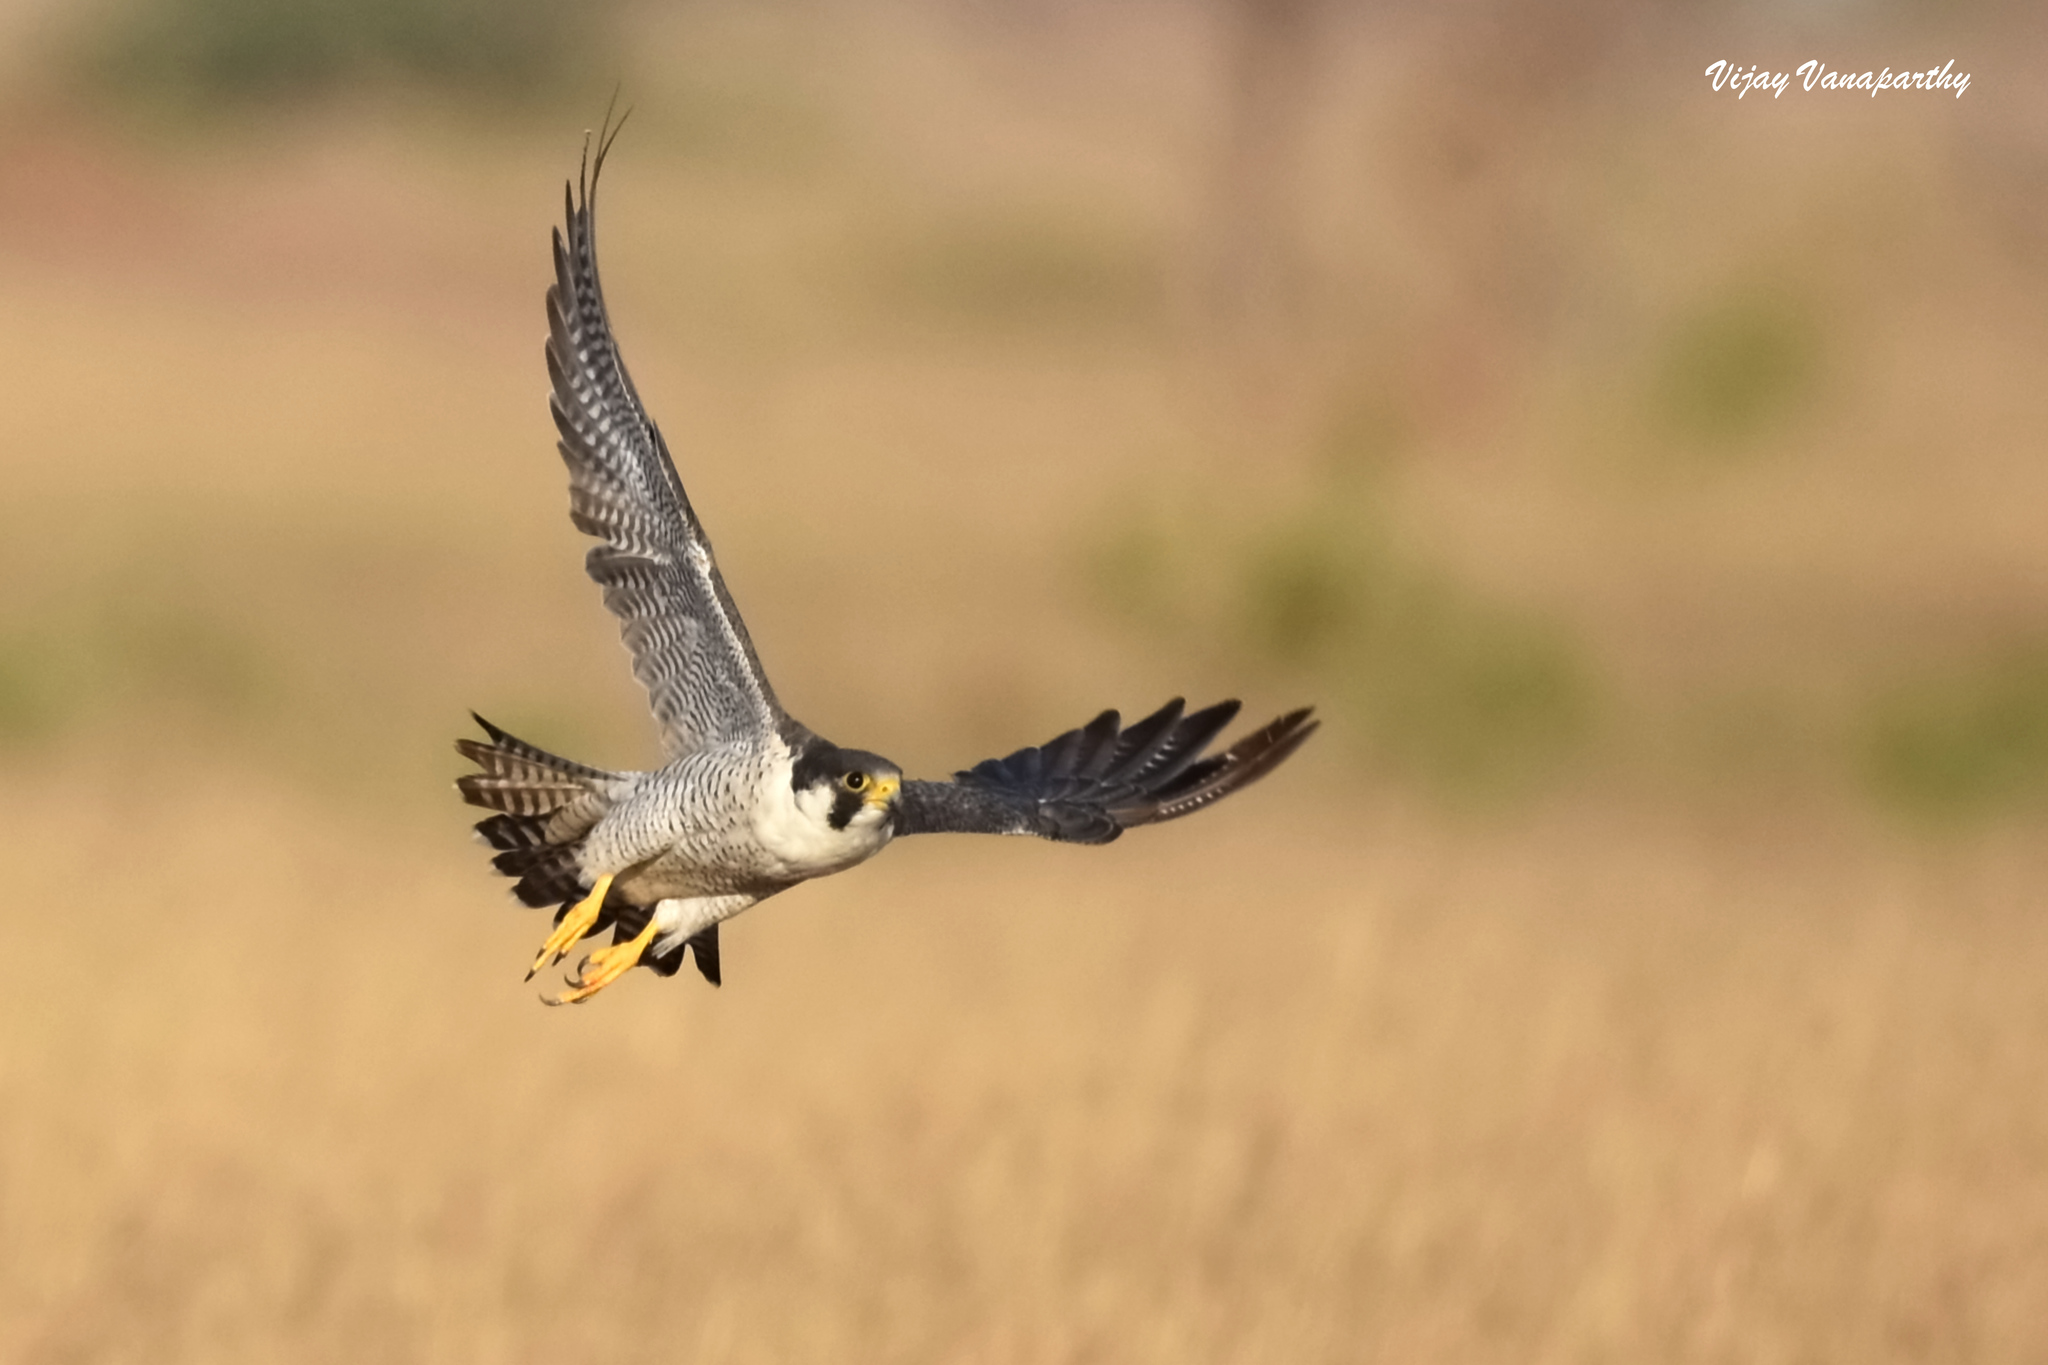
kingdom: Animalia
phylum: Chordata
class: Aves
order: Falconiformes
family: Falconidae
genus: Falco
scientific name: Falco peregrinus
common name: Peregrine falcon
